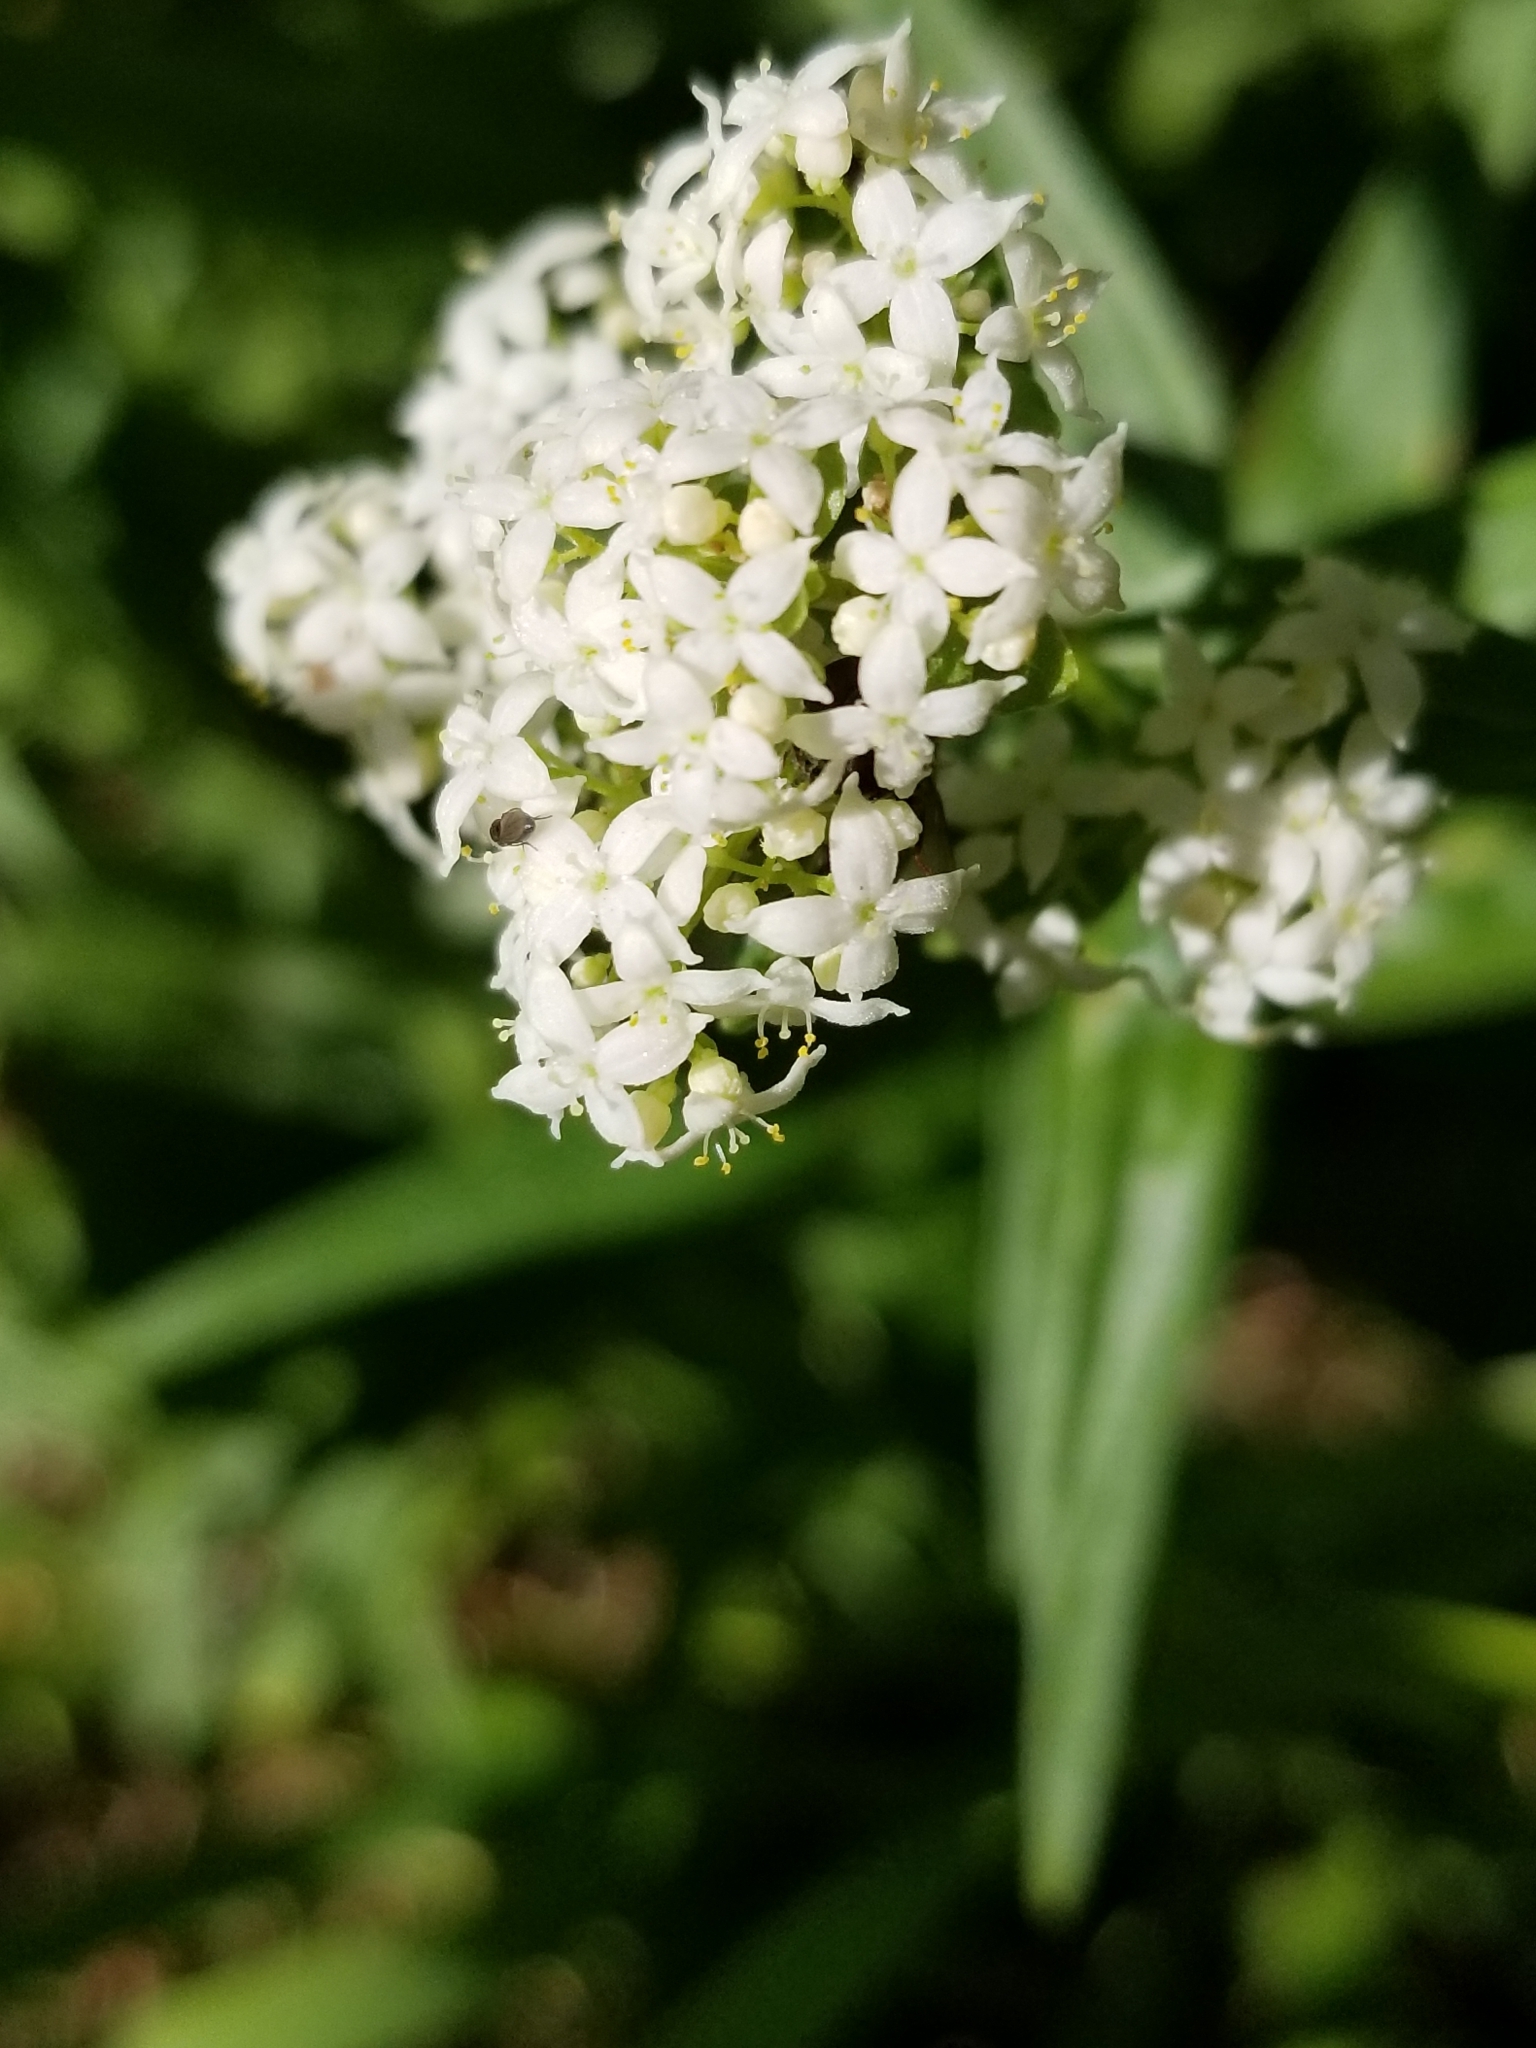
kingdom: Plantae
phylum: Tracheophyta
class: Magnoliopsida
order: Gentianales
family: Rubiaceae
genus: Galium
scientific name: Galium boreale
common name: Northern bedstraw
